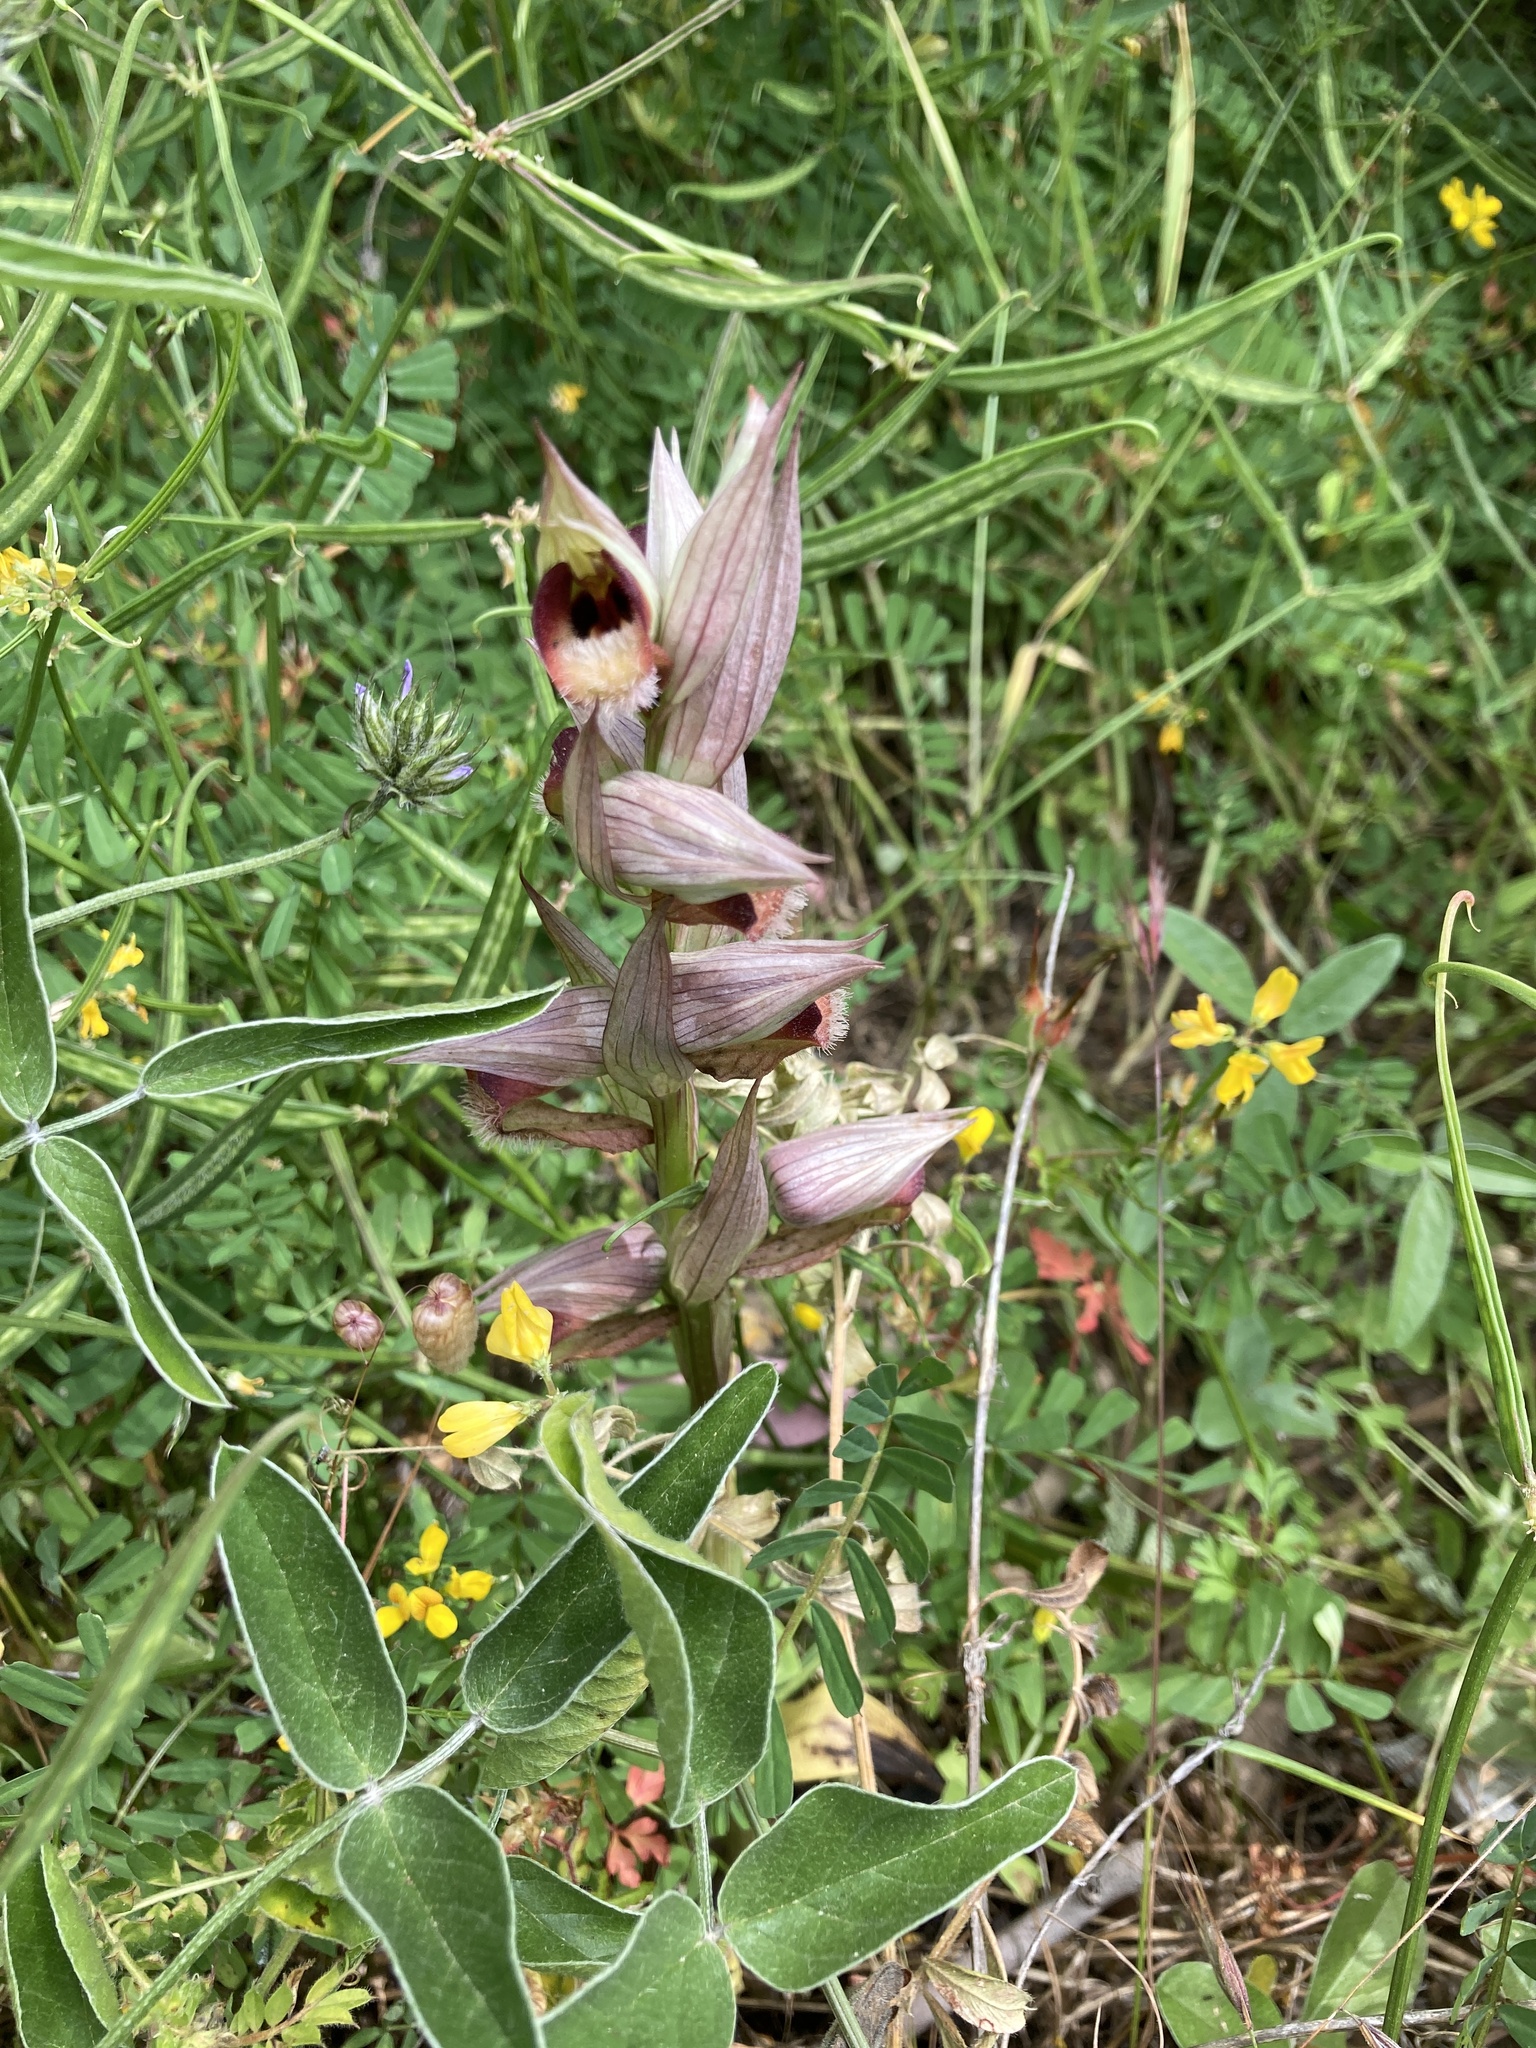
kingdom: Plantae
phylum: Tracheophyta
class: Liliopsida
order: Asparagales
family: Orchidaceae
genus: Serapias
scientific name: Serapias orientalis
